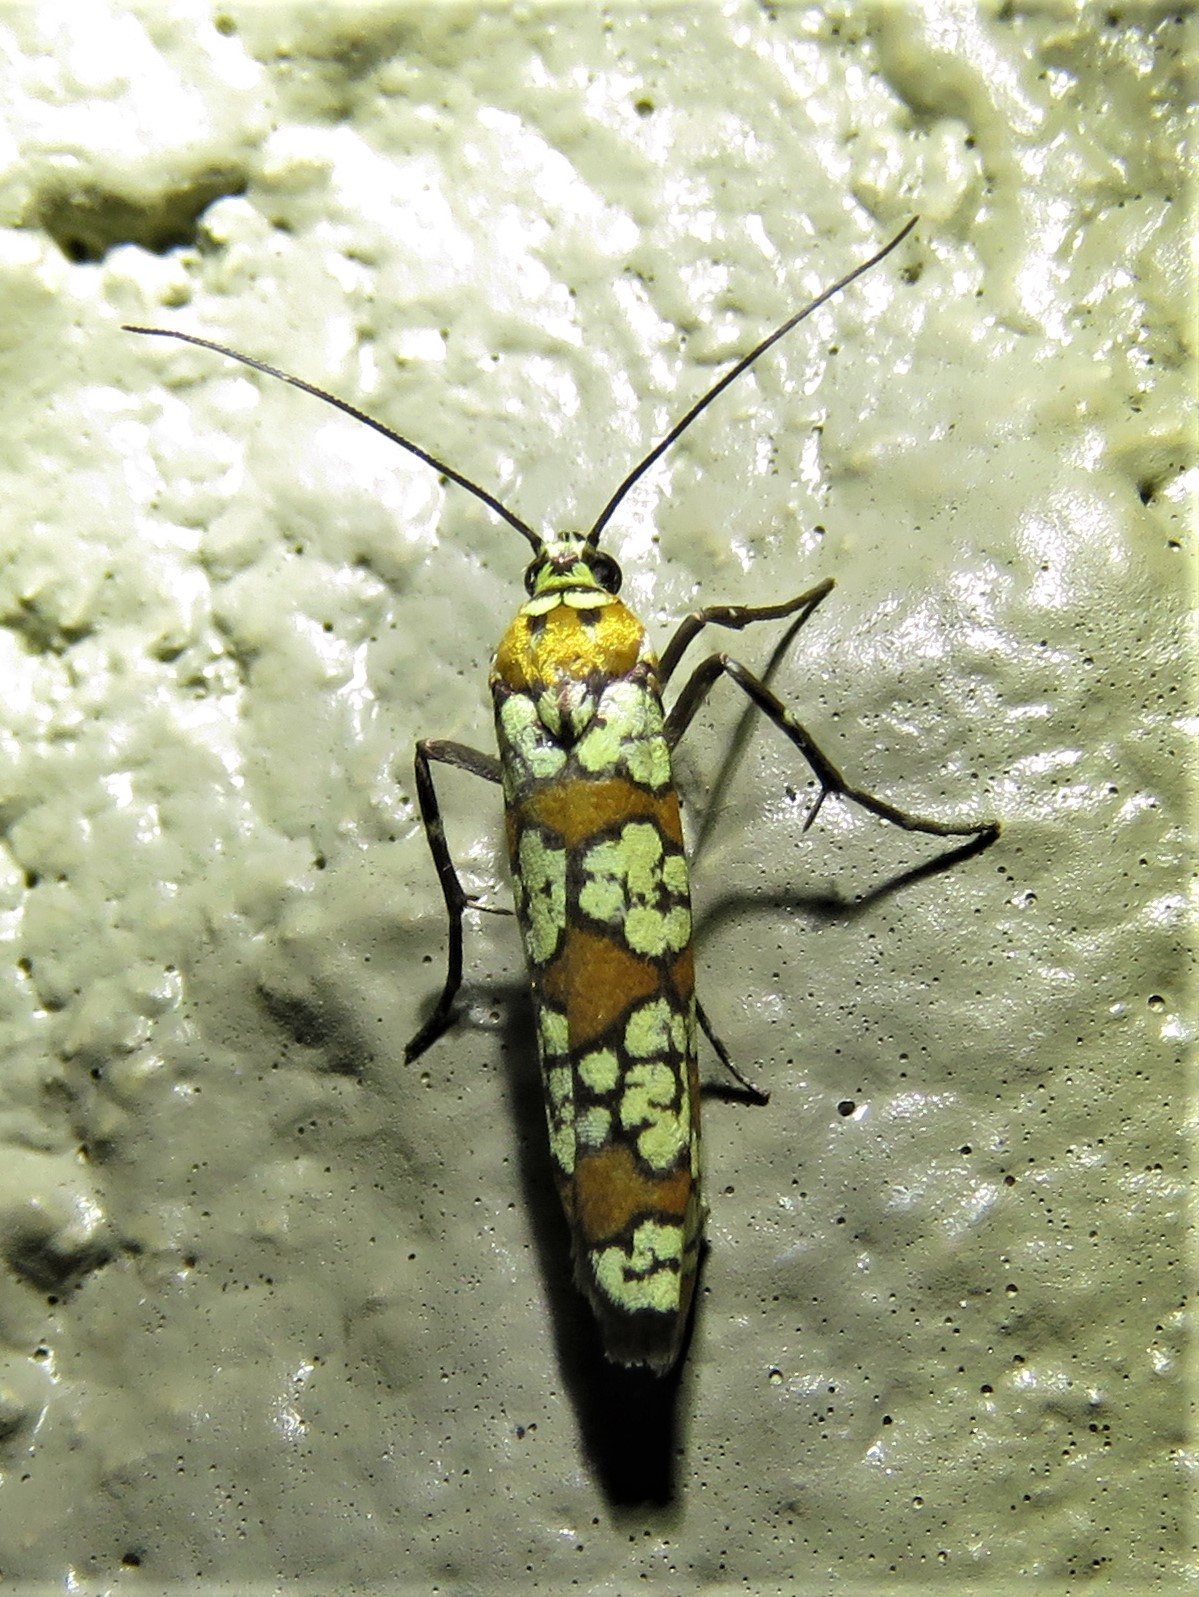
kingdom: Animalia
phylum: Arthropoda
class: Insecta
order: Lepidoptera
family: Attevidae
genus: Atteva
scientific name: Atteva punctella
